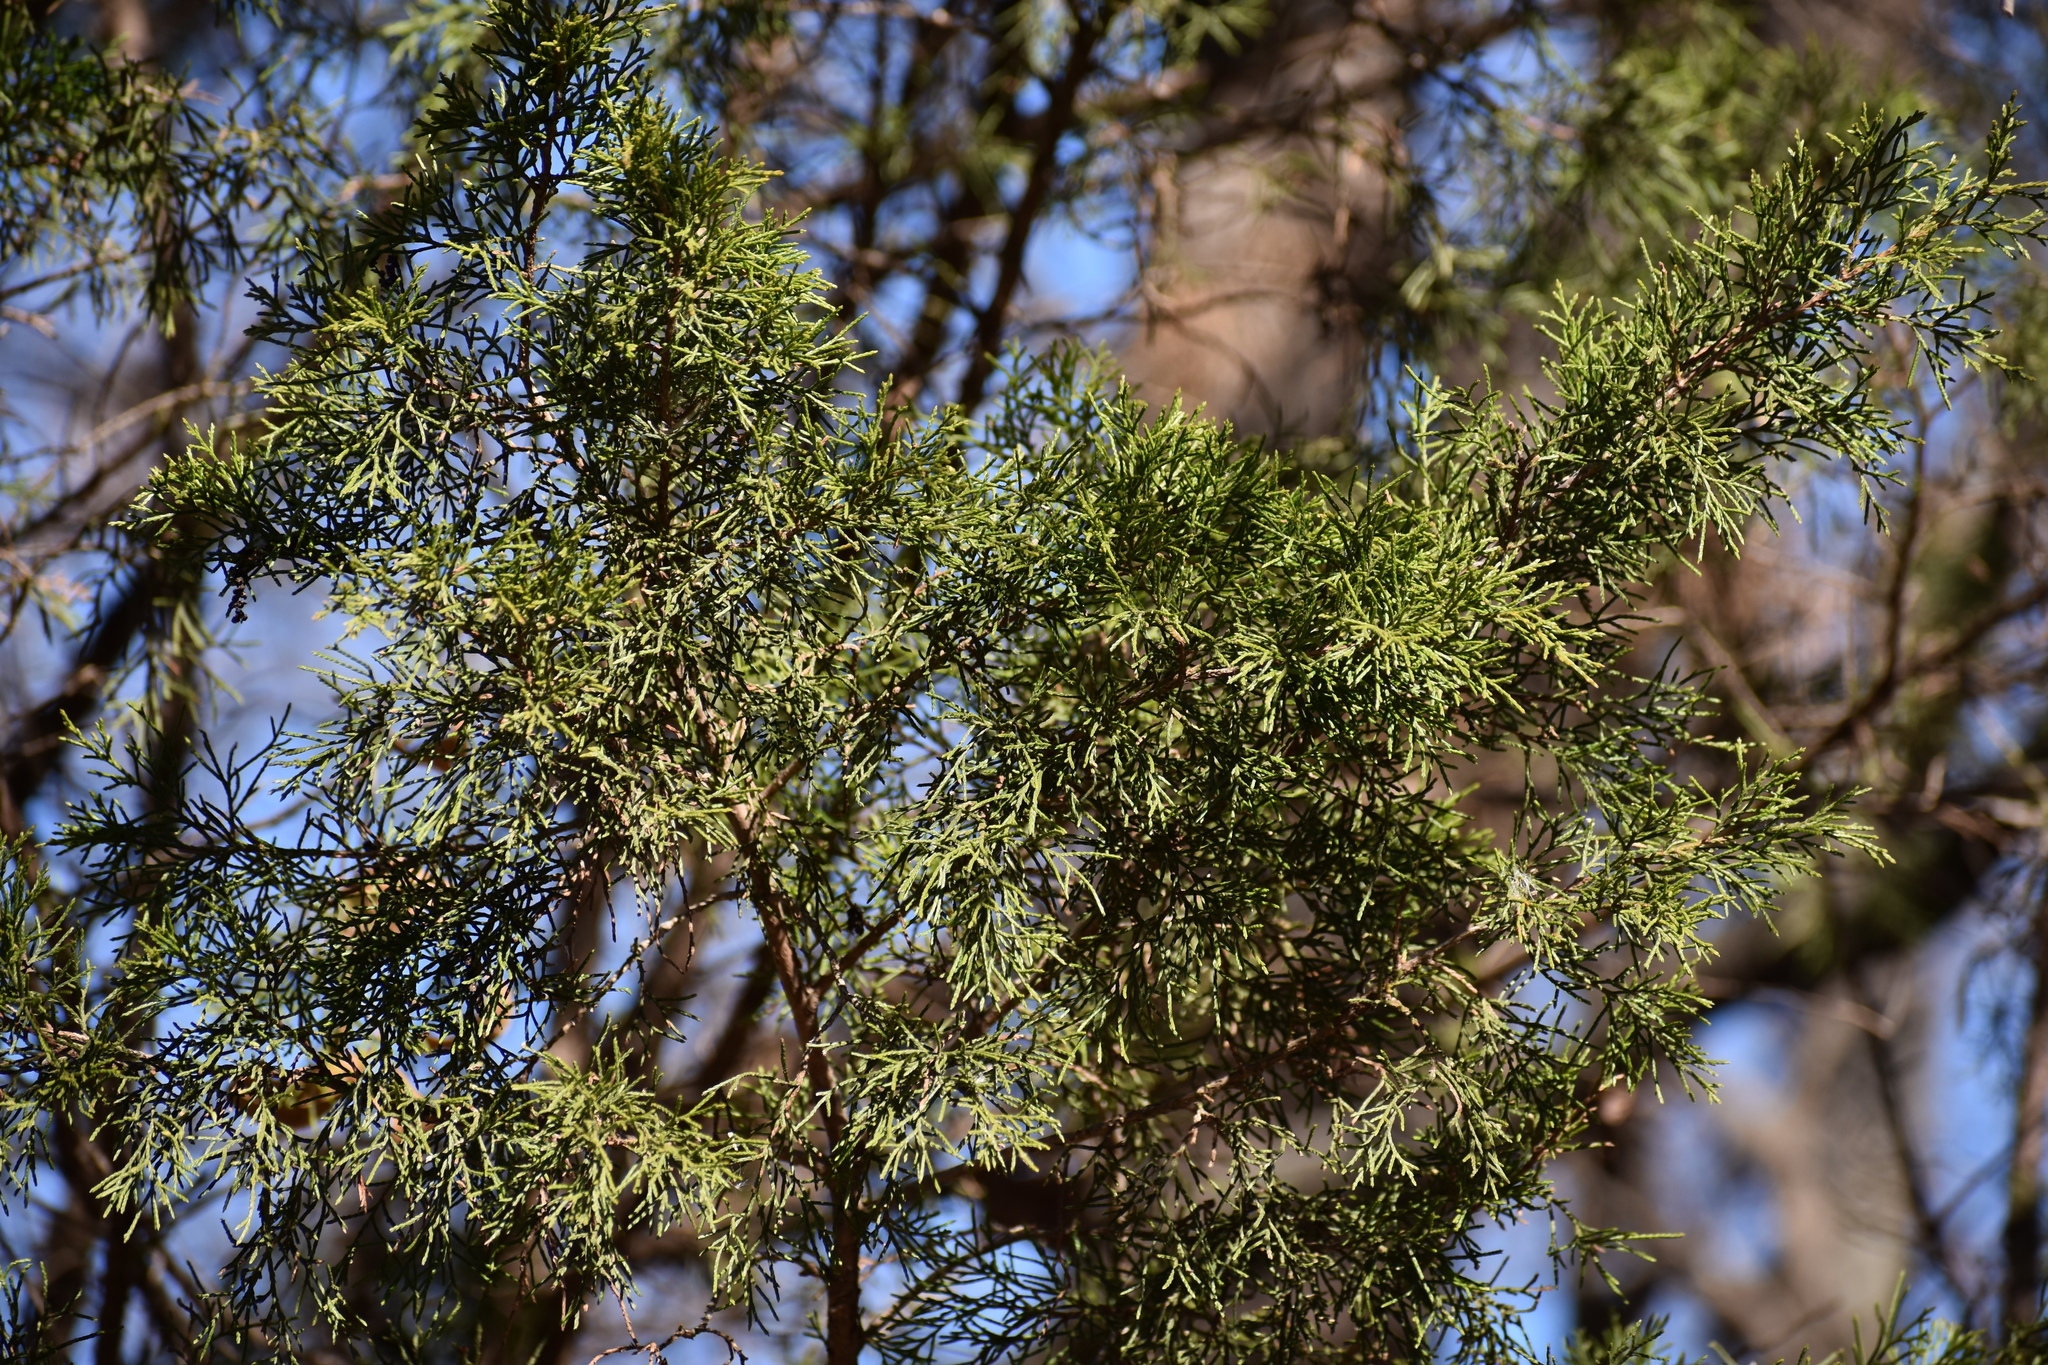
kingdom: Plantae
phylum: Tracheophyta
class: Pinopsida
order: Pinales
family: Cupressaceae
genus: Juniperus
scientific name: Juniperus virginiana
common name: Red juniper
